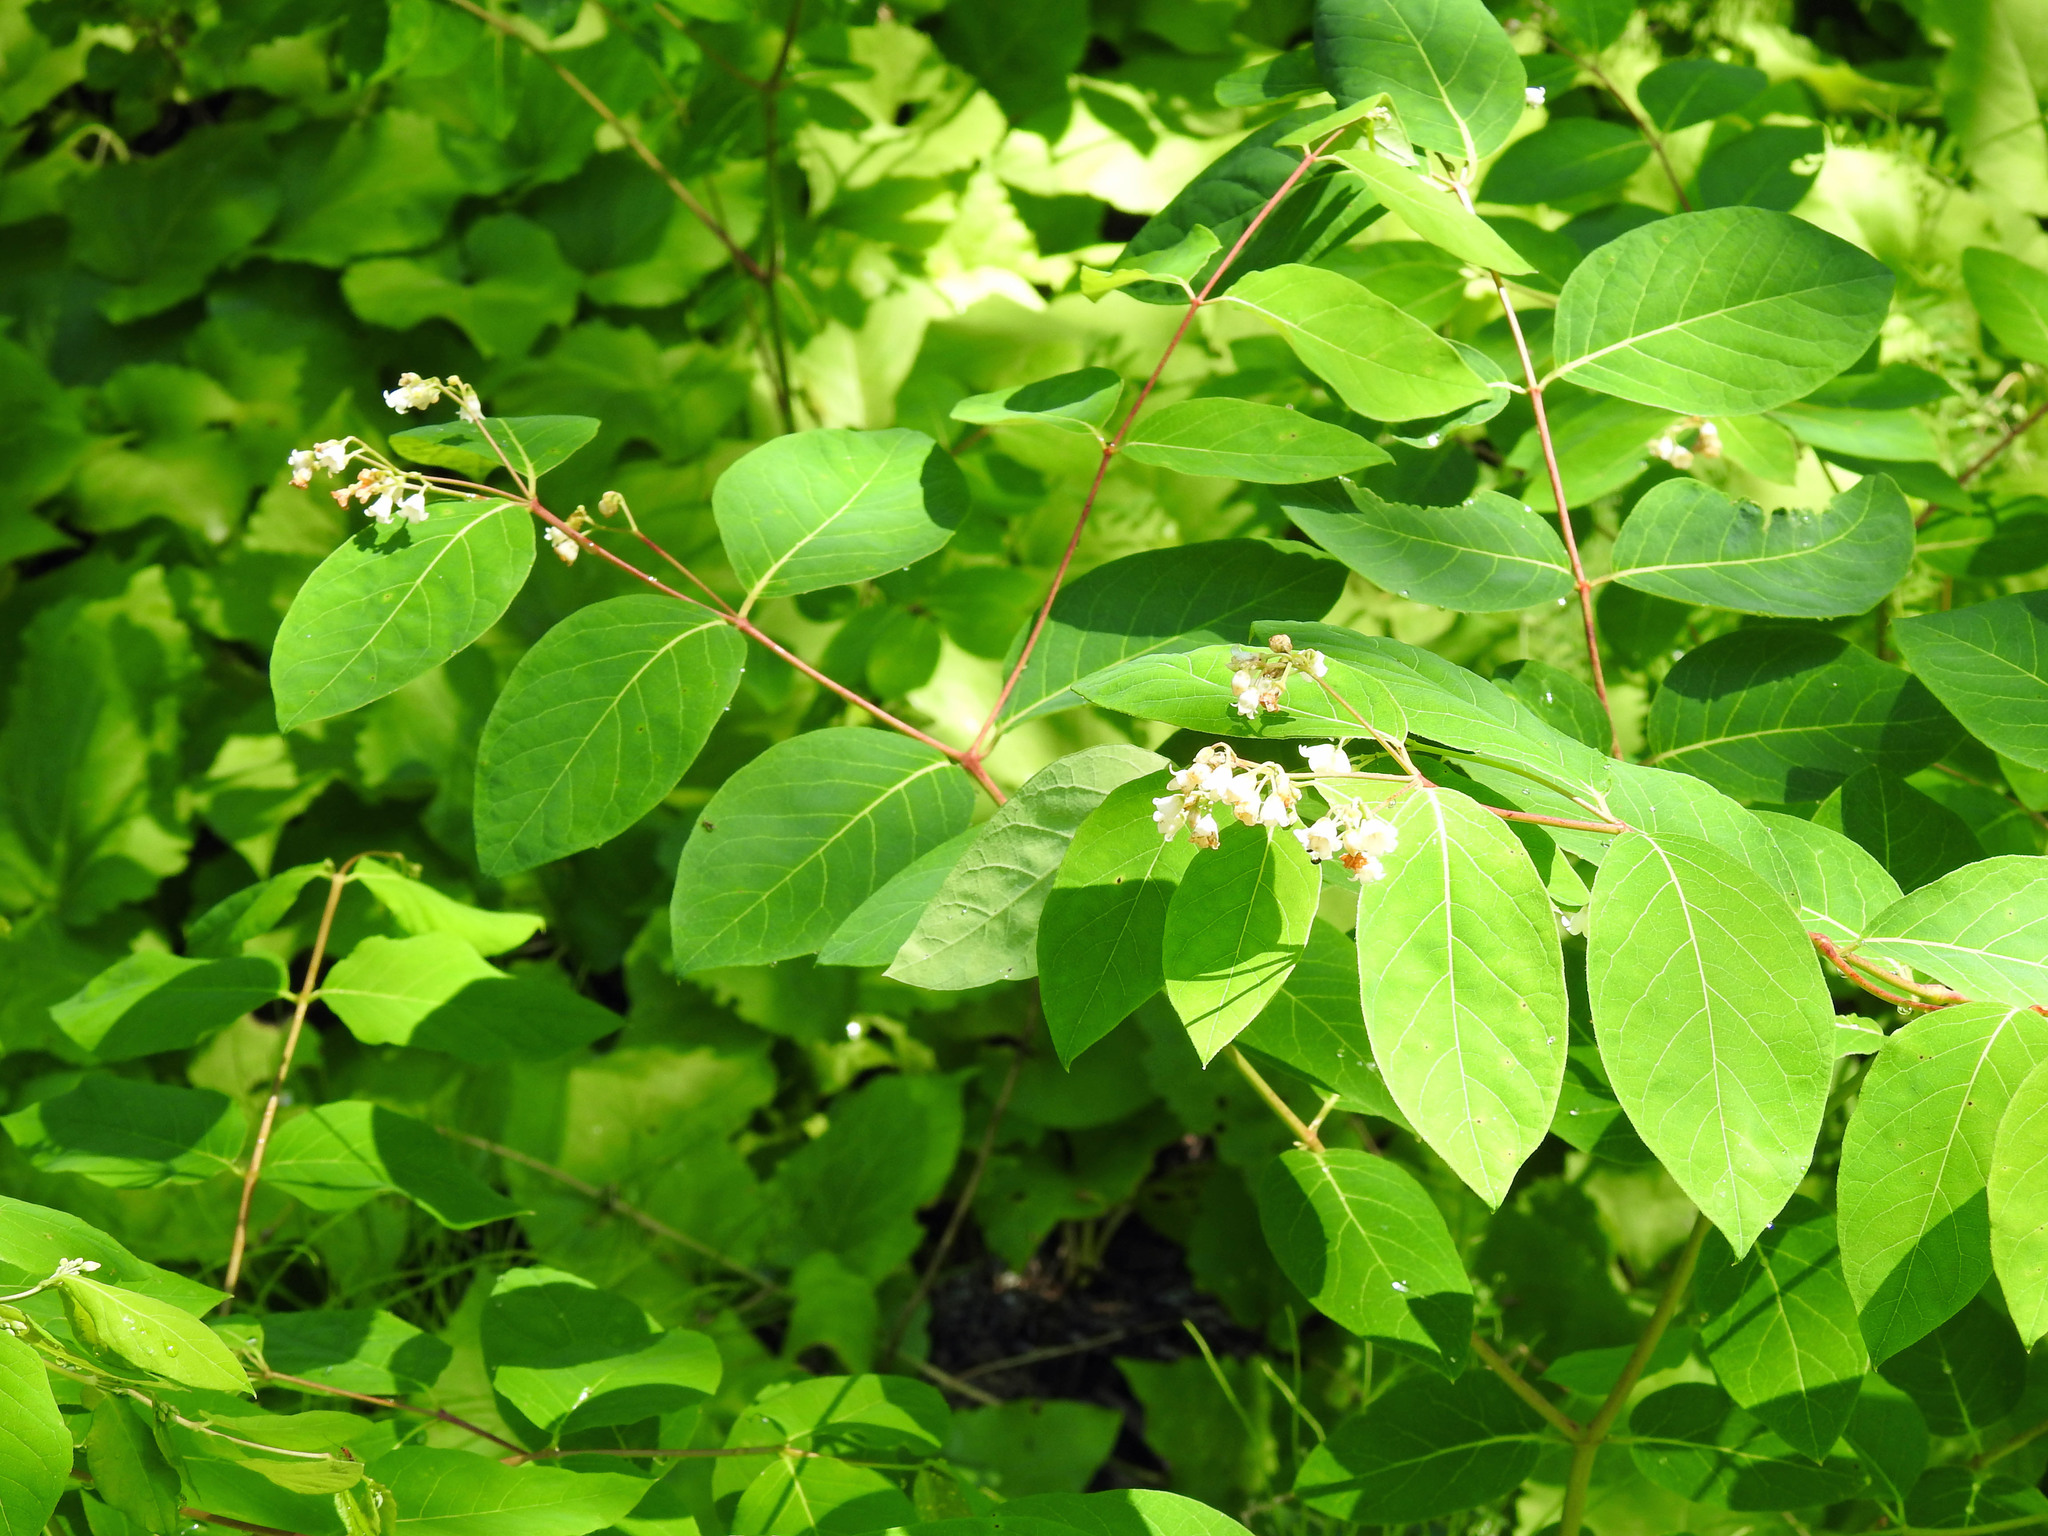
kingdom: Plantae
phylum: Tracheophyta
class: Magnoliopsida
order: Gentianales
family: Apocynaceae
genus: Apocynum
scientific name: Apocynum androsaemifolium
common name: Spreading dogbane
